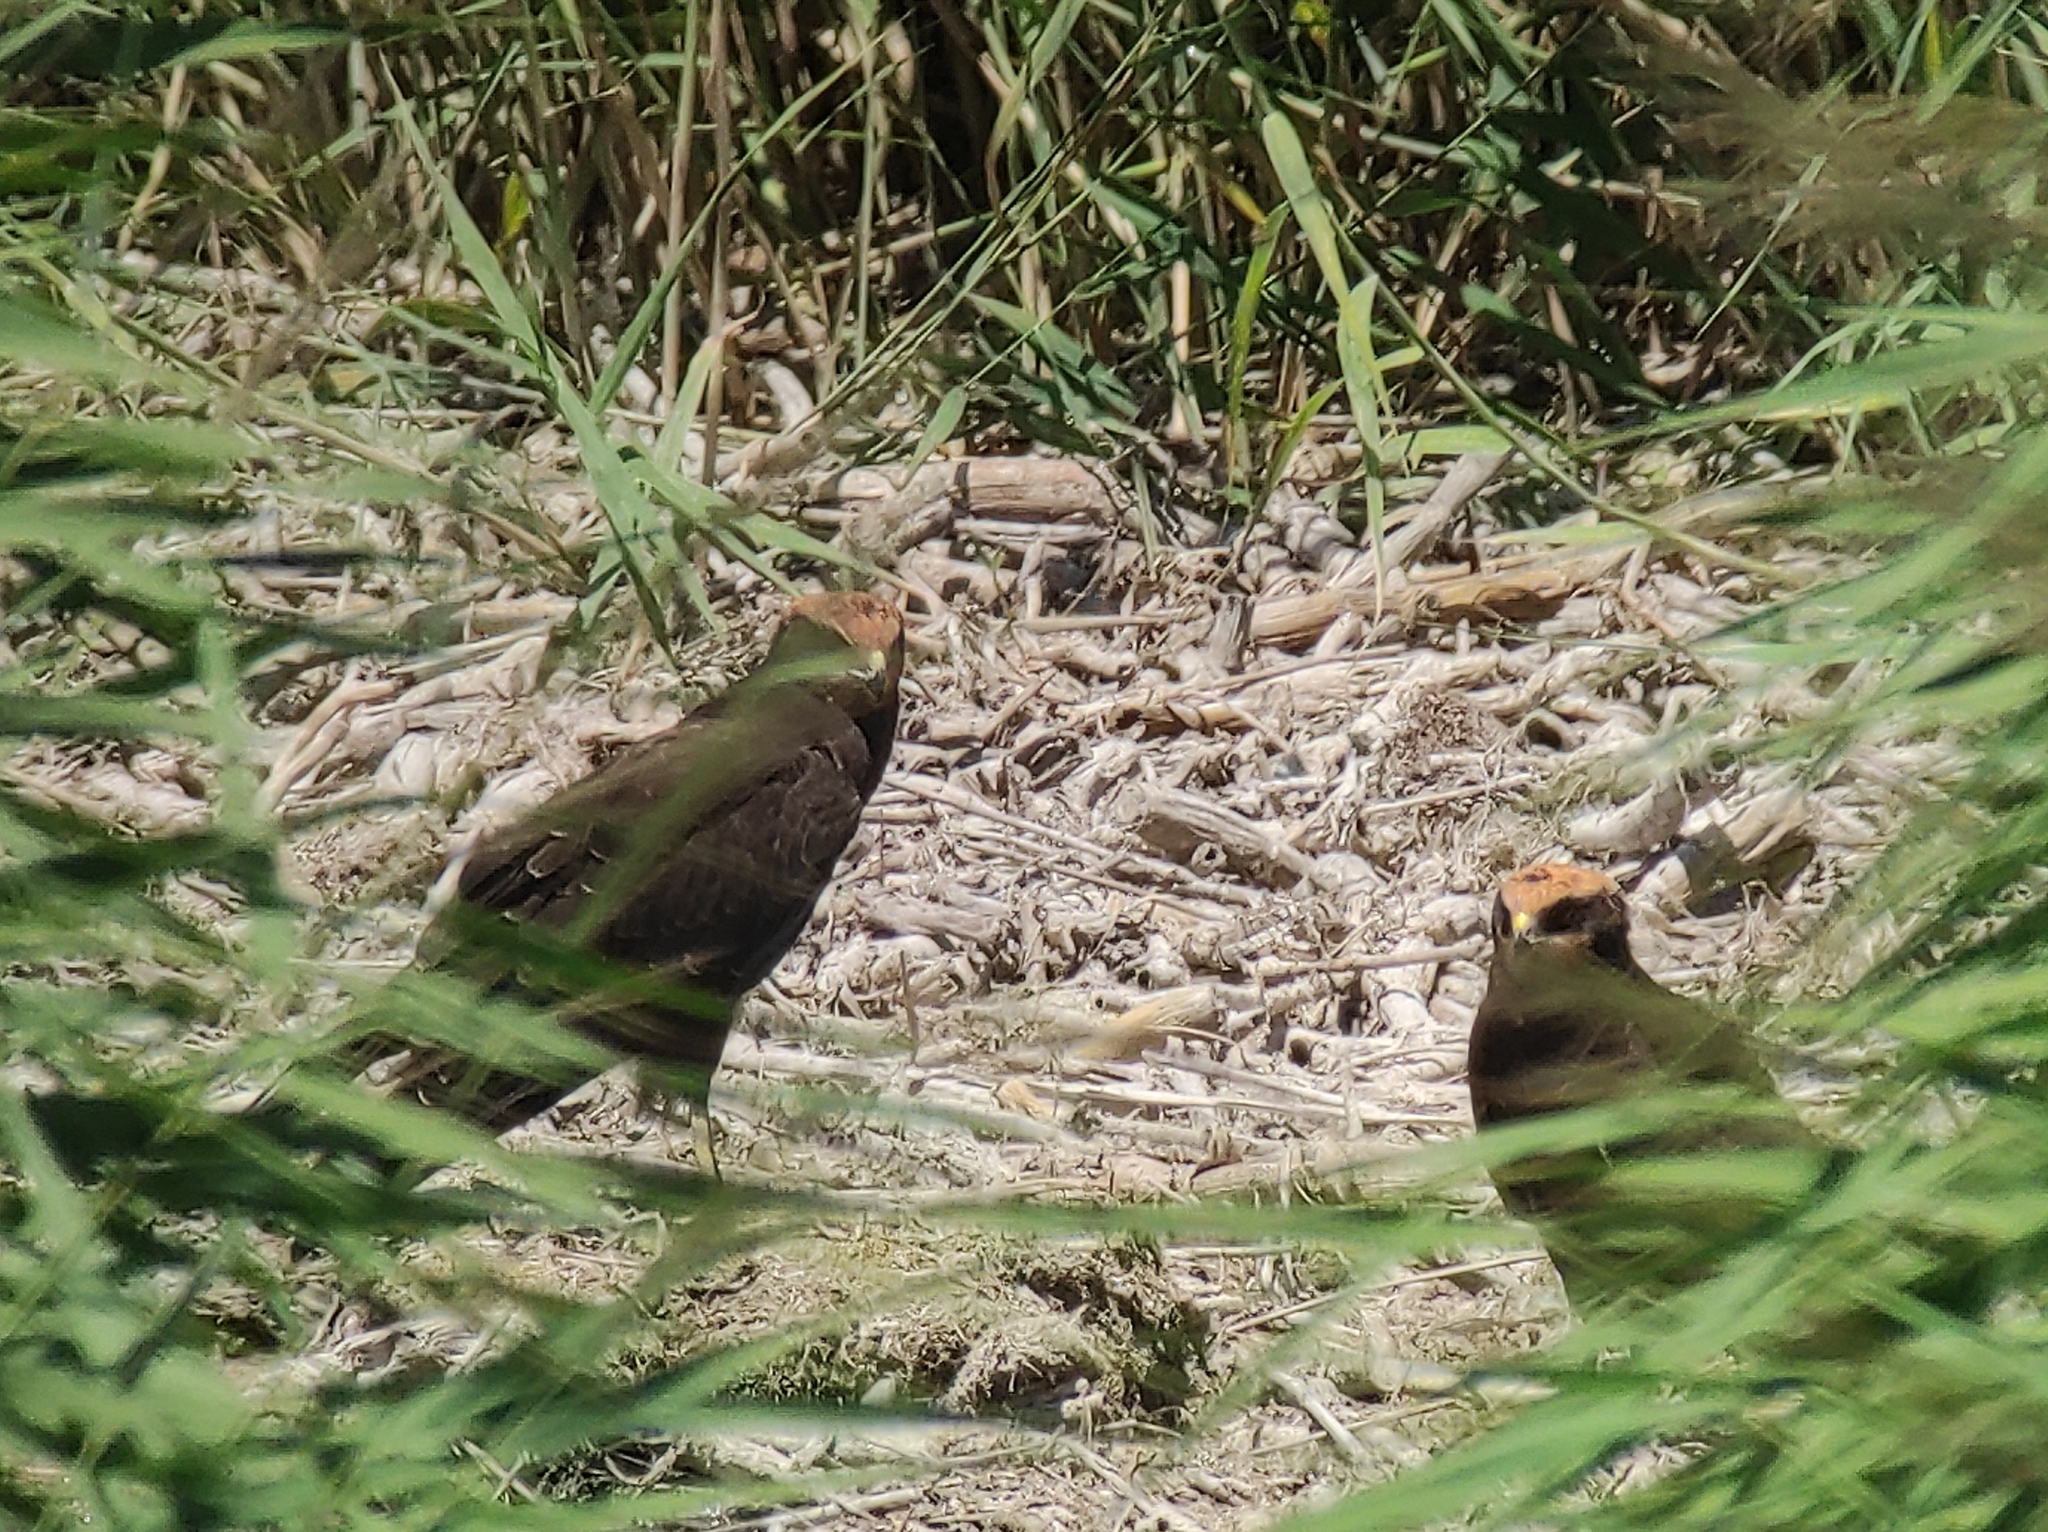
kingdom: Animalia
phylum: Chordata
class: Aves
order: Accipitriformes
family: Accipitridae
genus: Circus
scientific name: Circus aeruginosus
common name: Western marsh harrier
